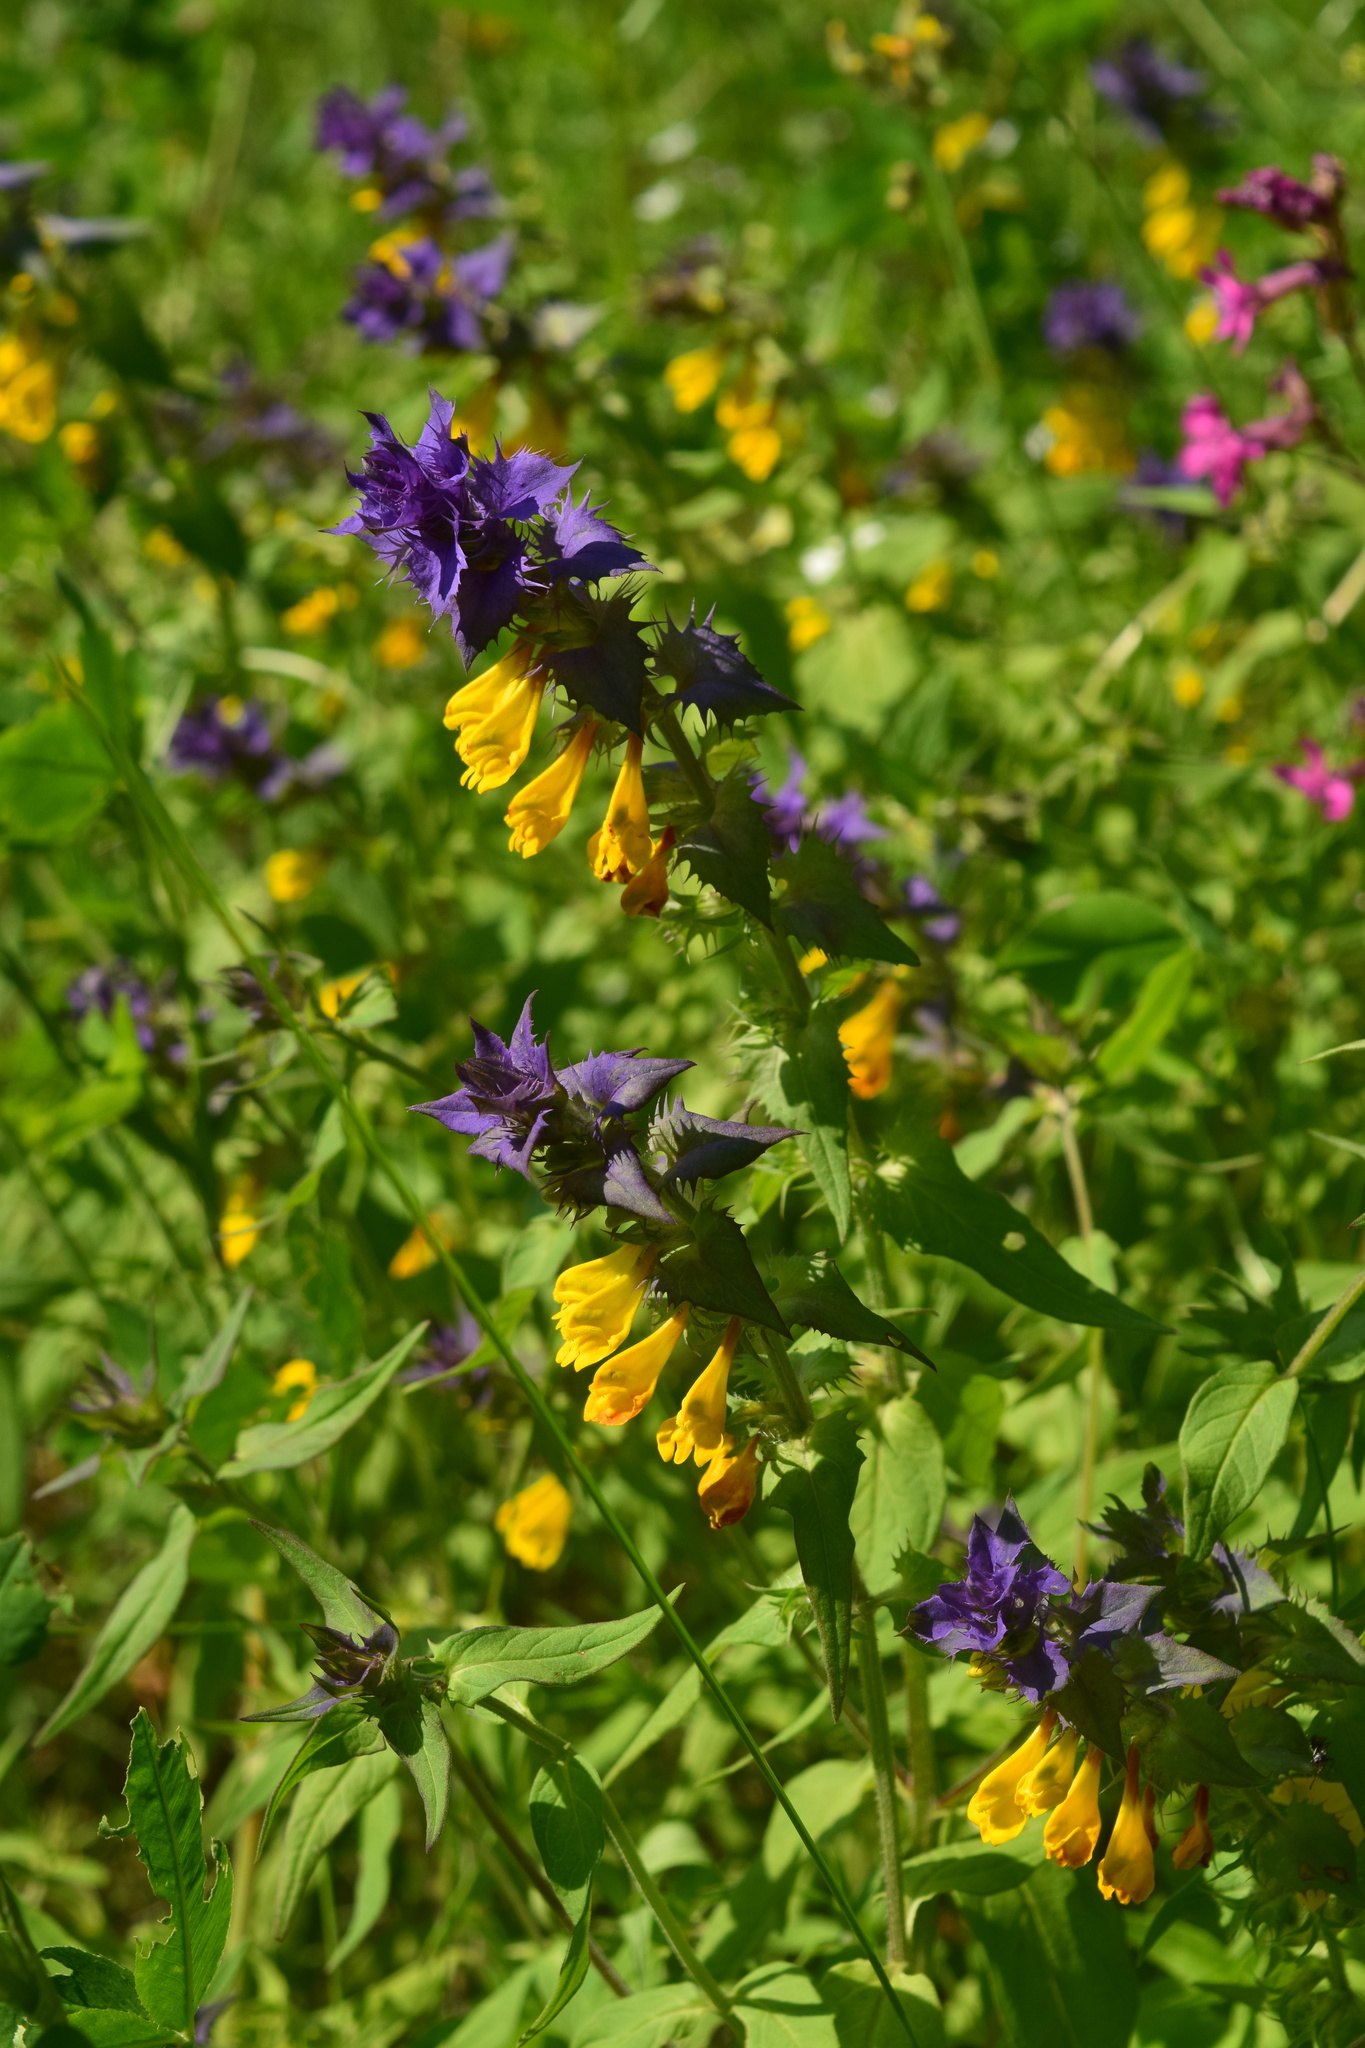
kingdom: Plantae
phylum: Tracheophyta
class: Magnoliopsida
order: Lamiales
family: Orobanchaceae
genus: Melampyrum
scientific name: Melampyrum nemorosum
